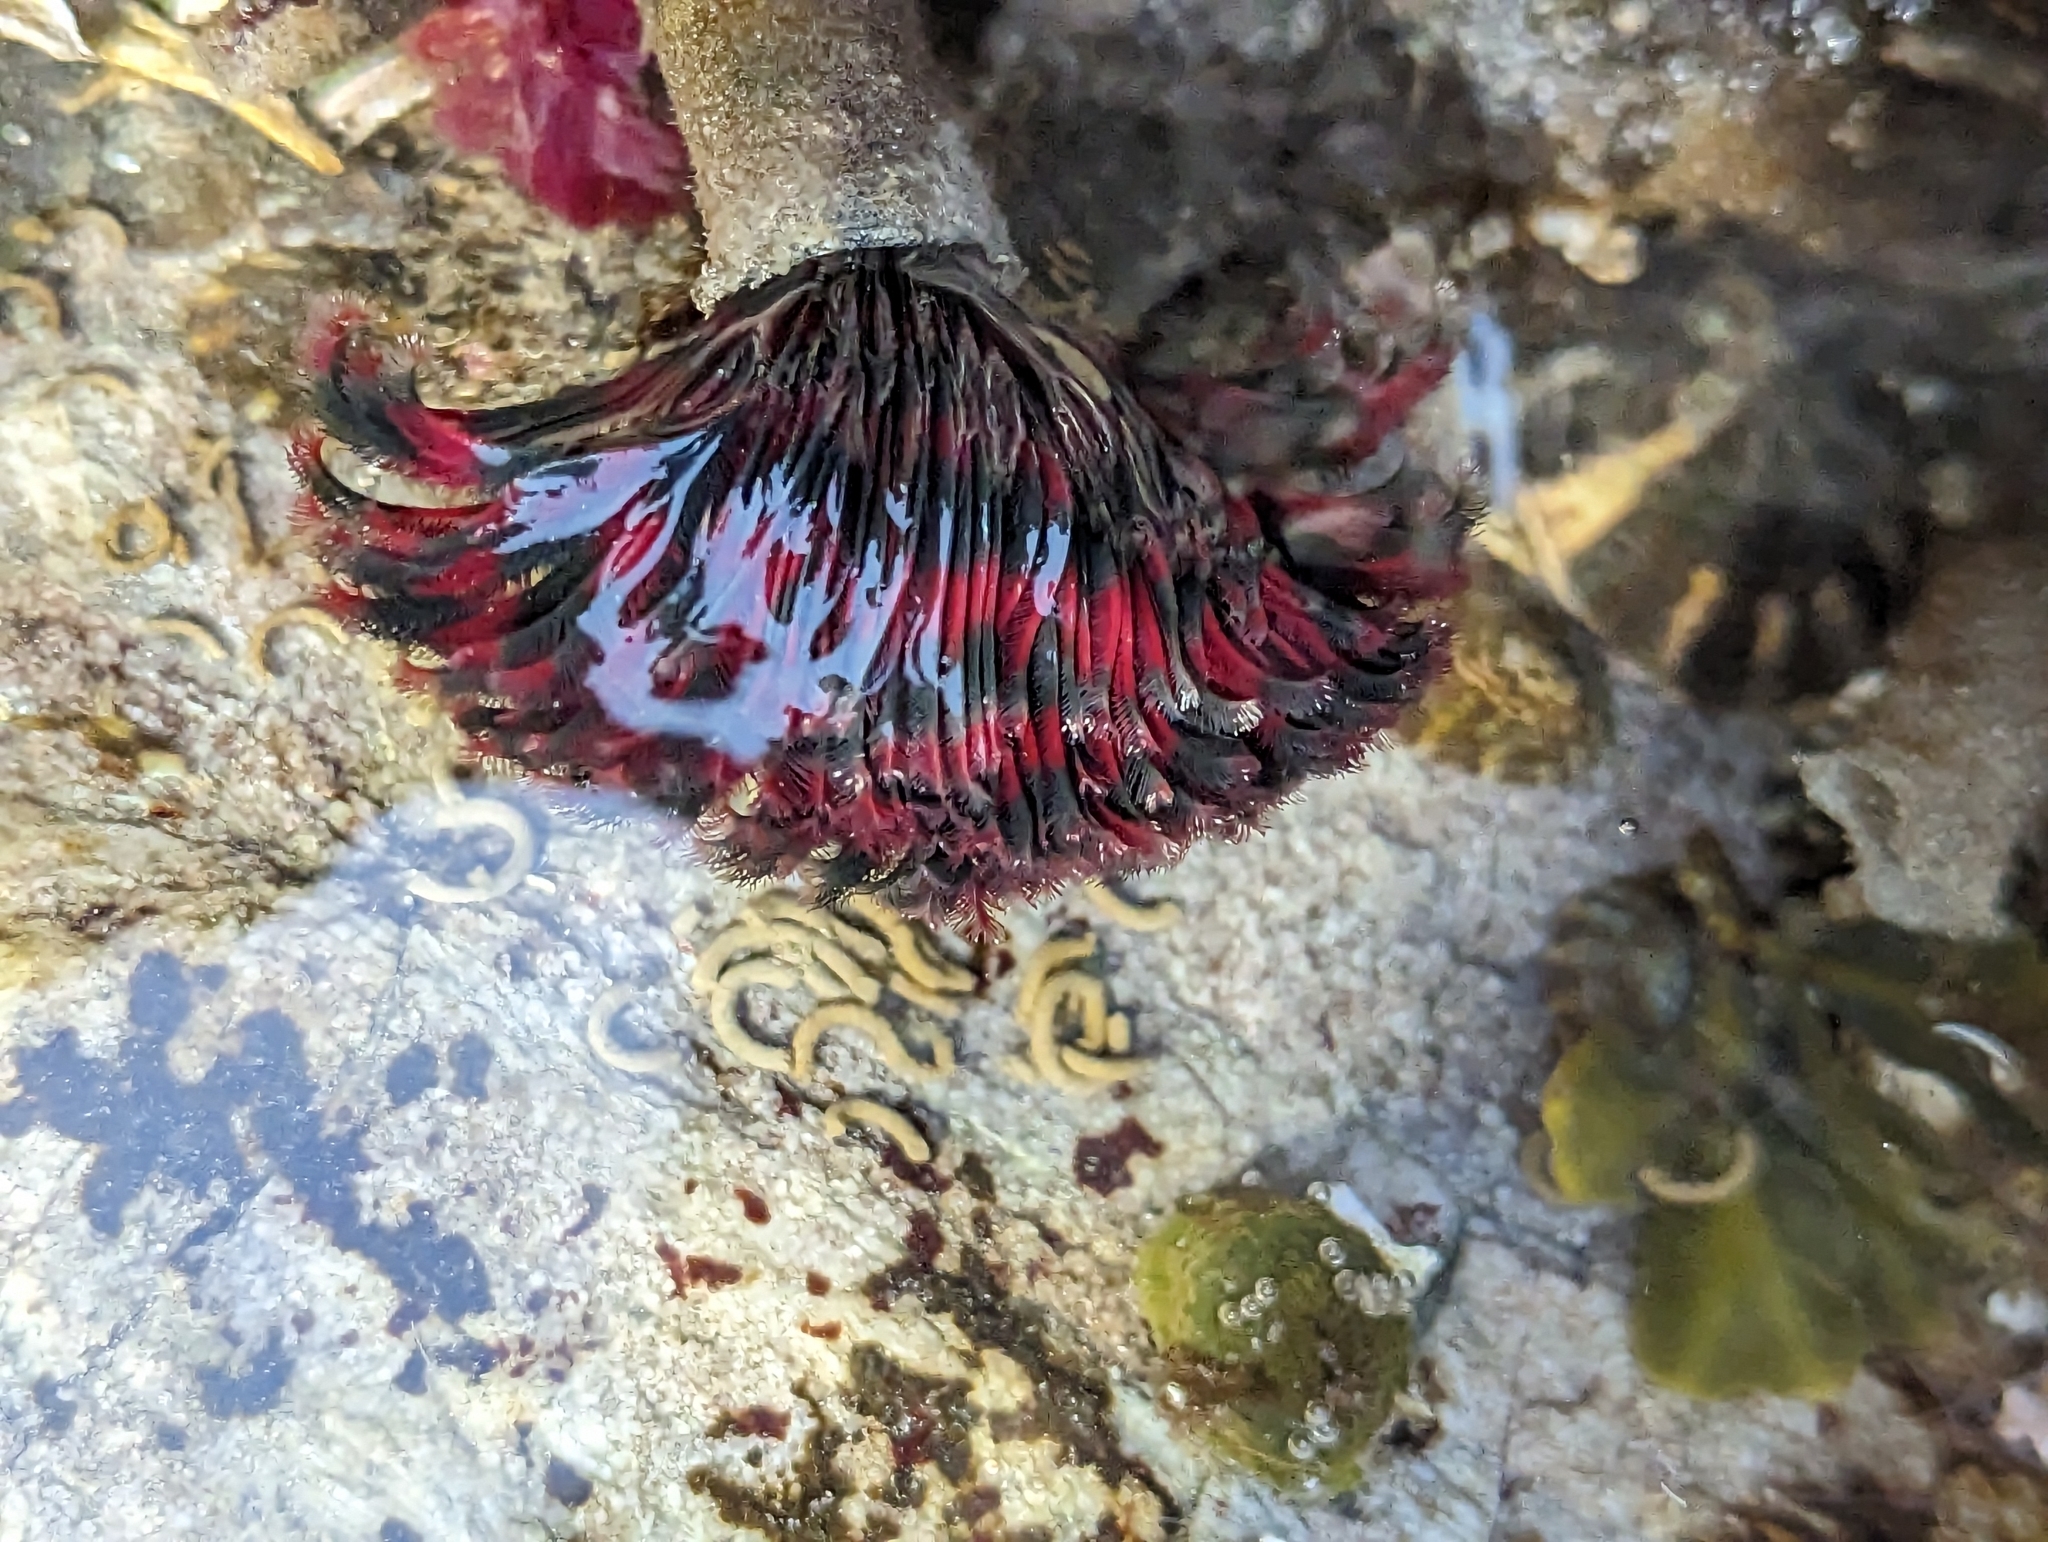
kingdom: Animalia
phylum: Annelida
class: Polychaeta
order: Sabellida
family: Sabellidae
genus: Eudistylia
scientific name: Eudistylia vancouveri
